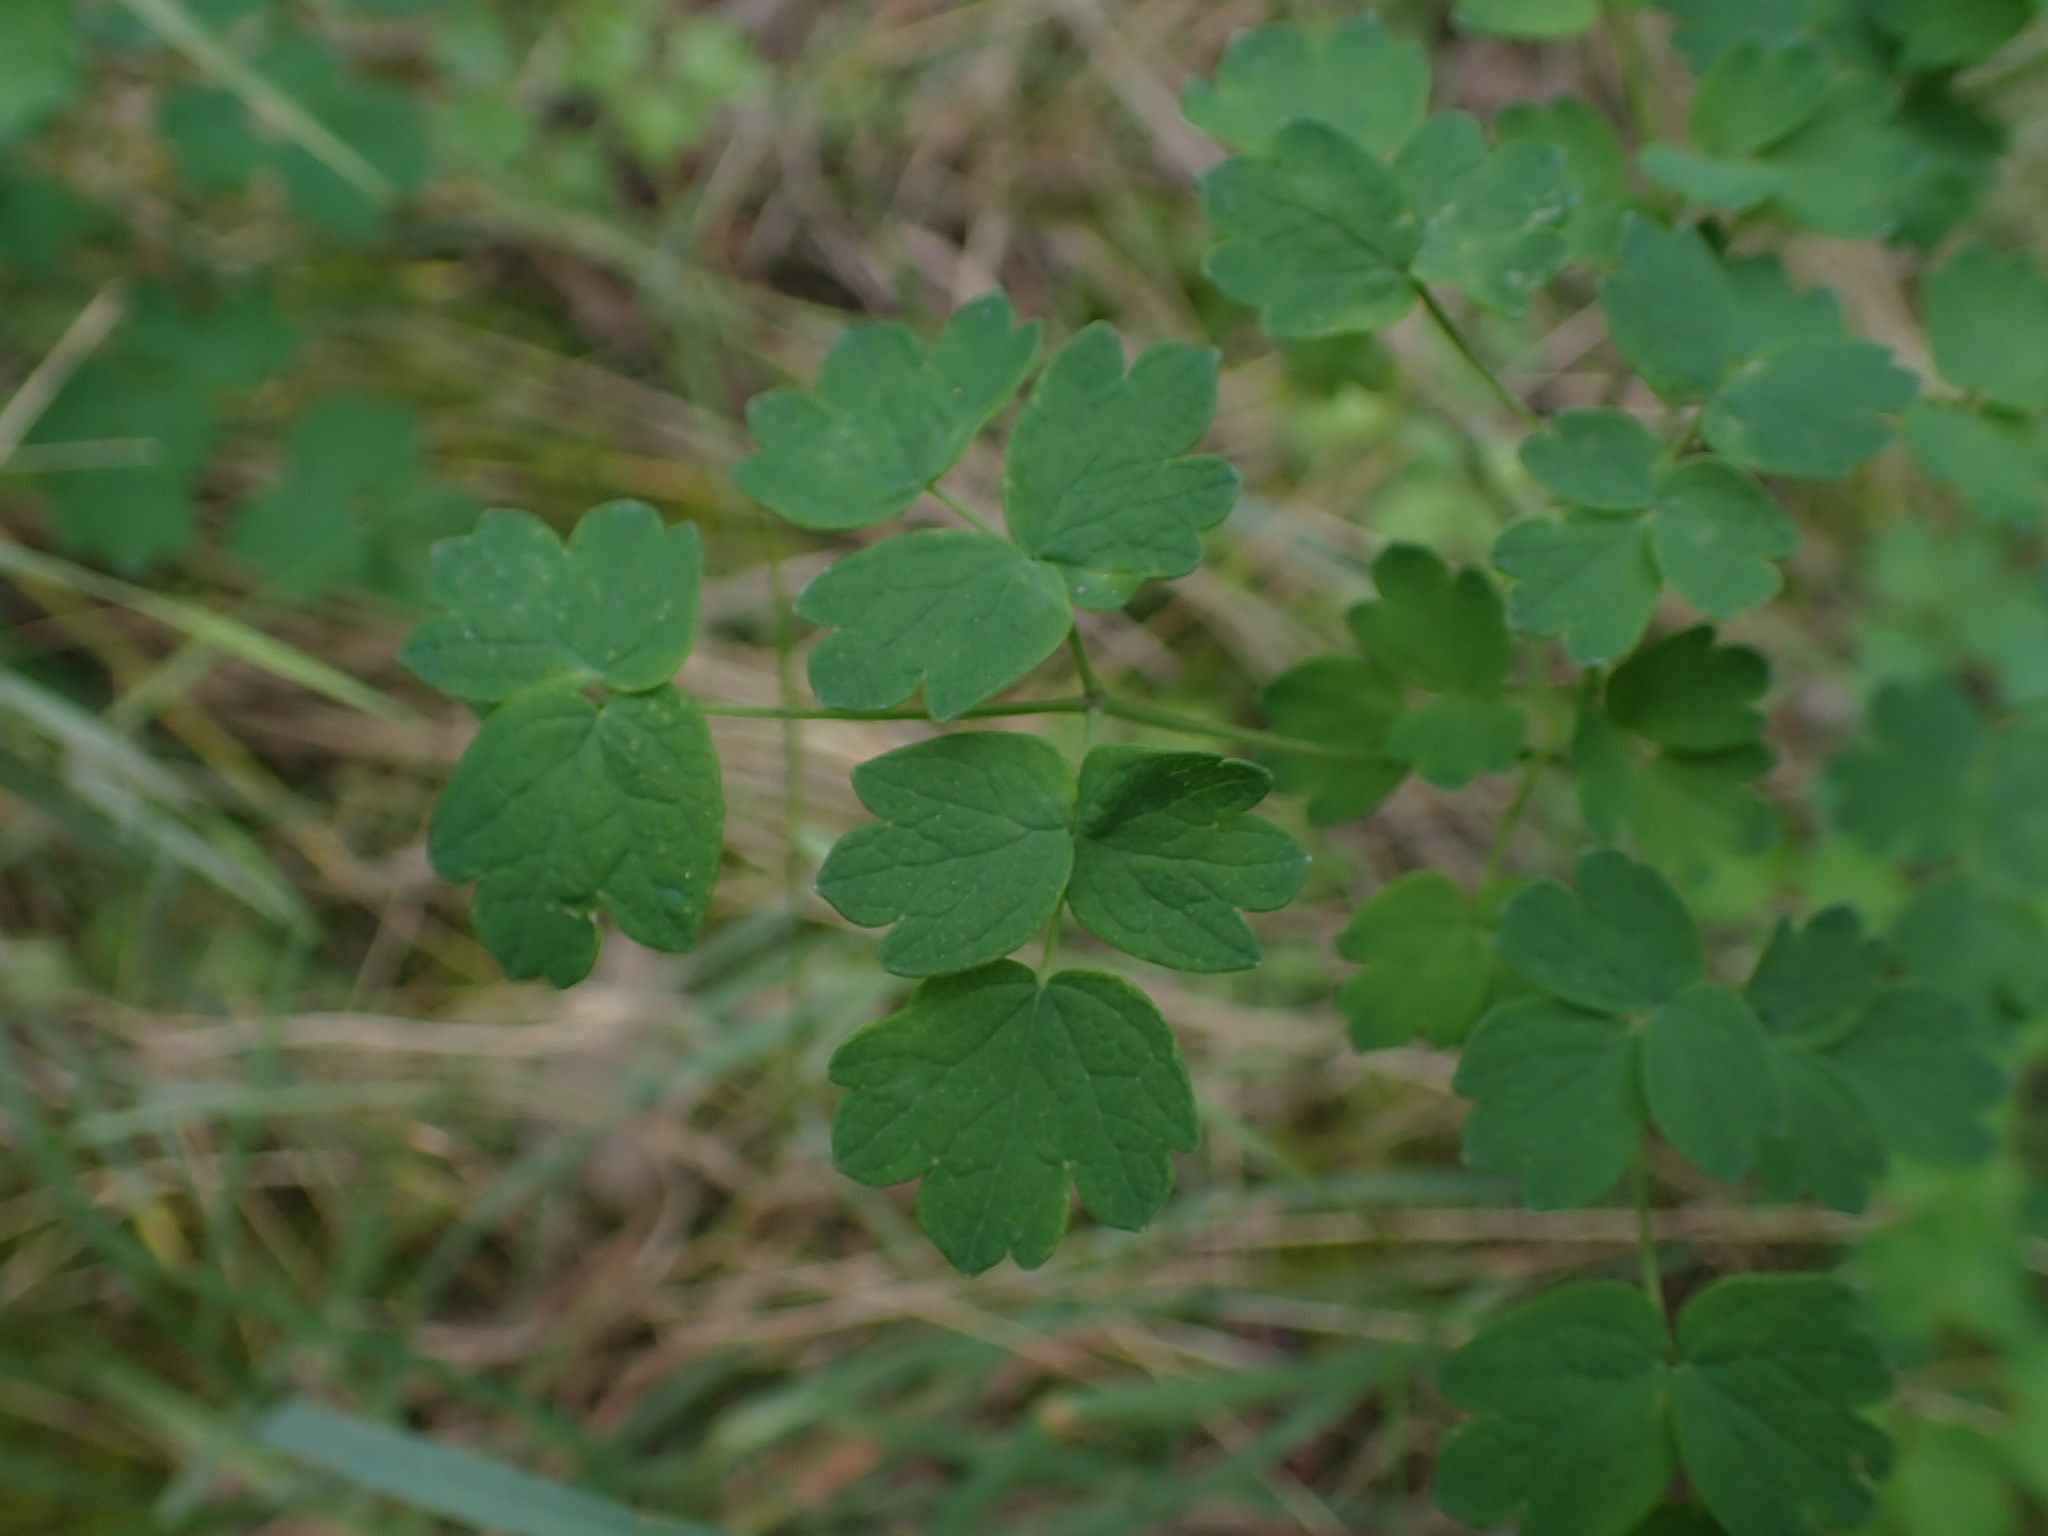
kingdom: Plantae
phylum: Tracheophyta
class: Magnoliopsida
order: Ranunculales
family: Ranunculaceae
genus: Thalictrum
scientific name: Thalictrum minus
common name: Lesser meadow-rue
